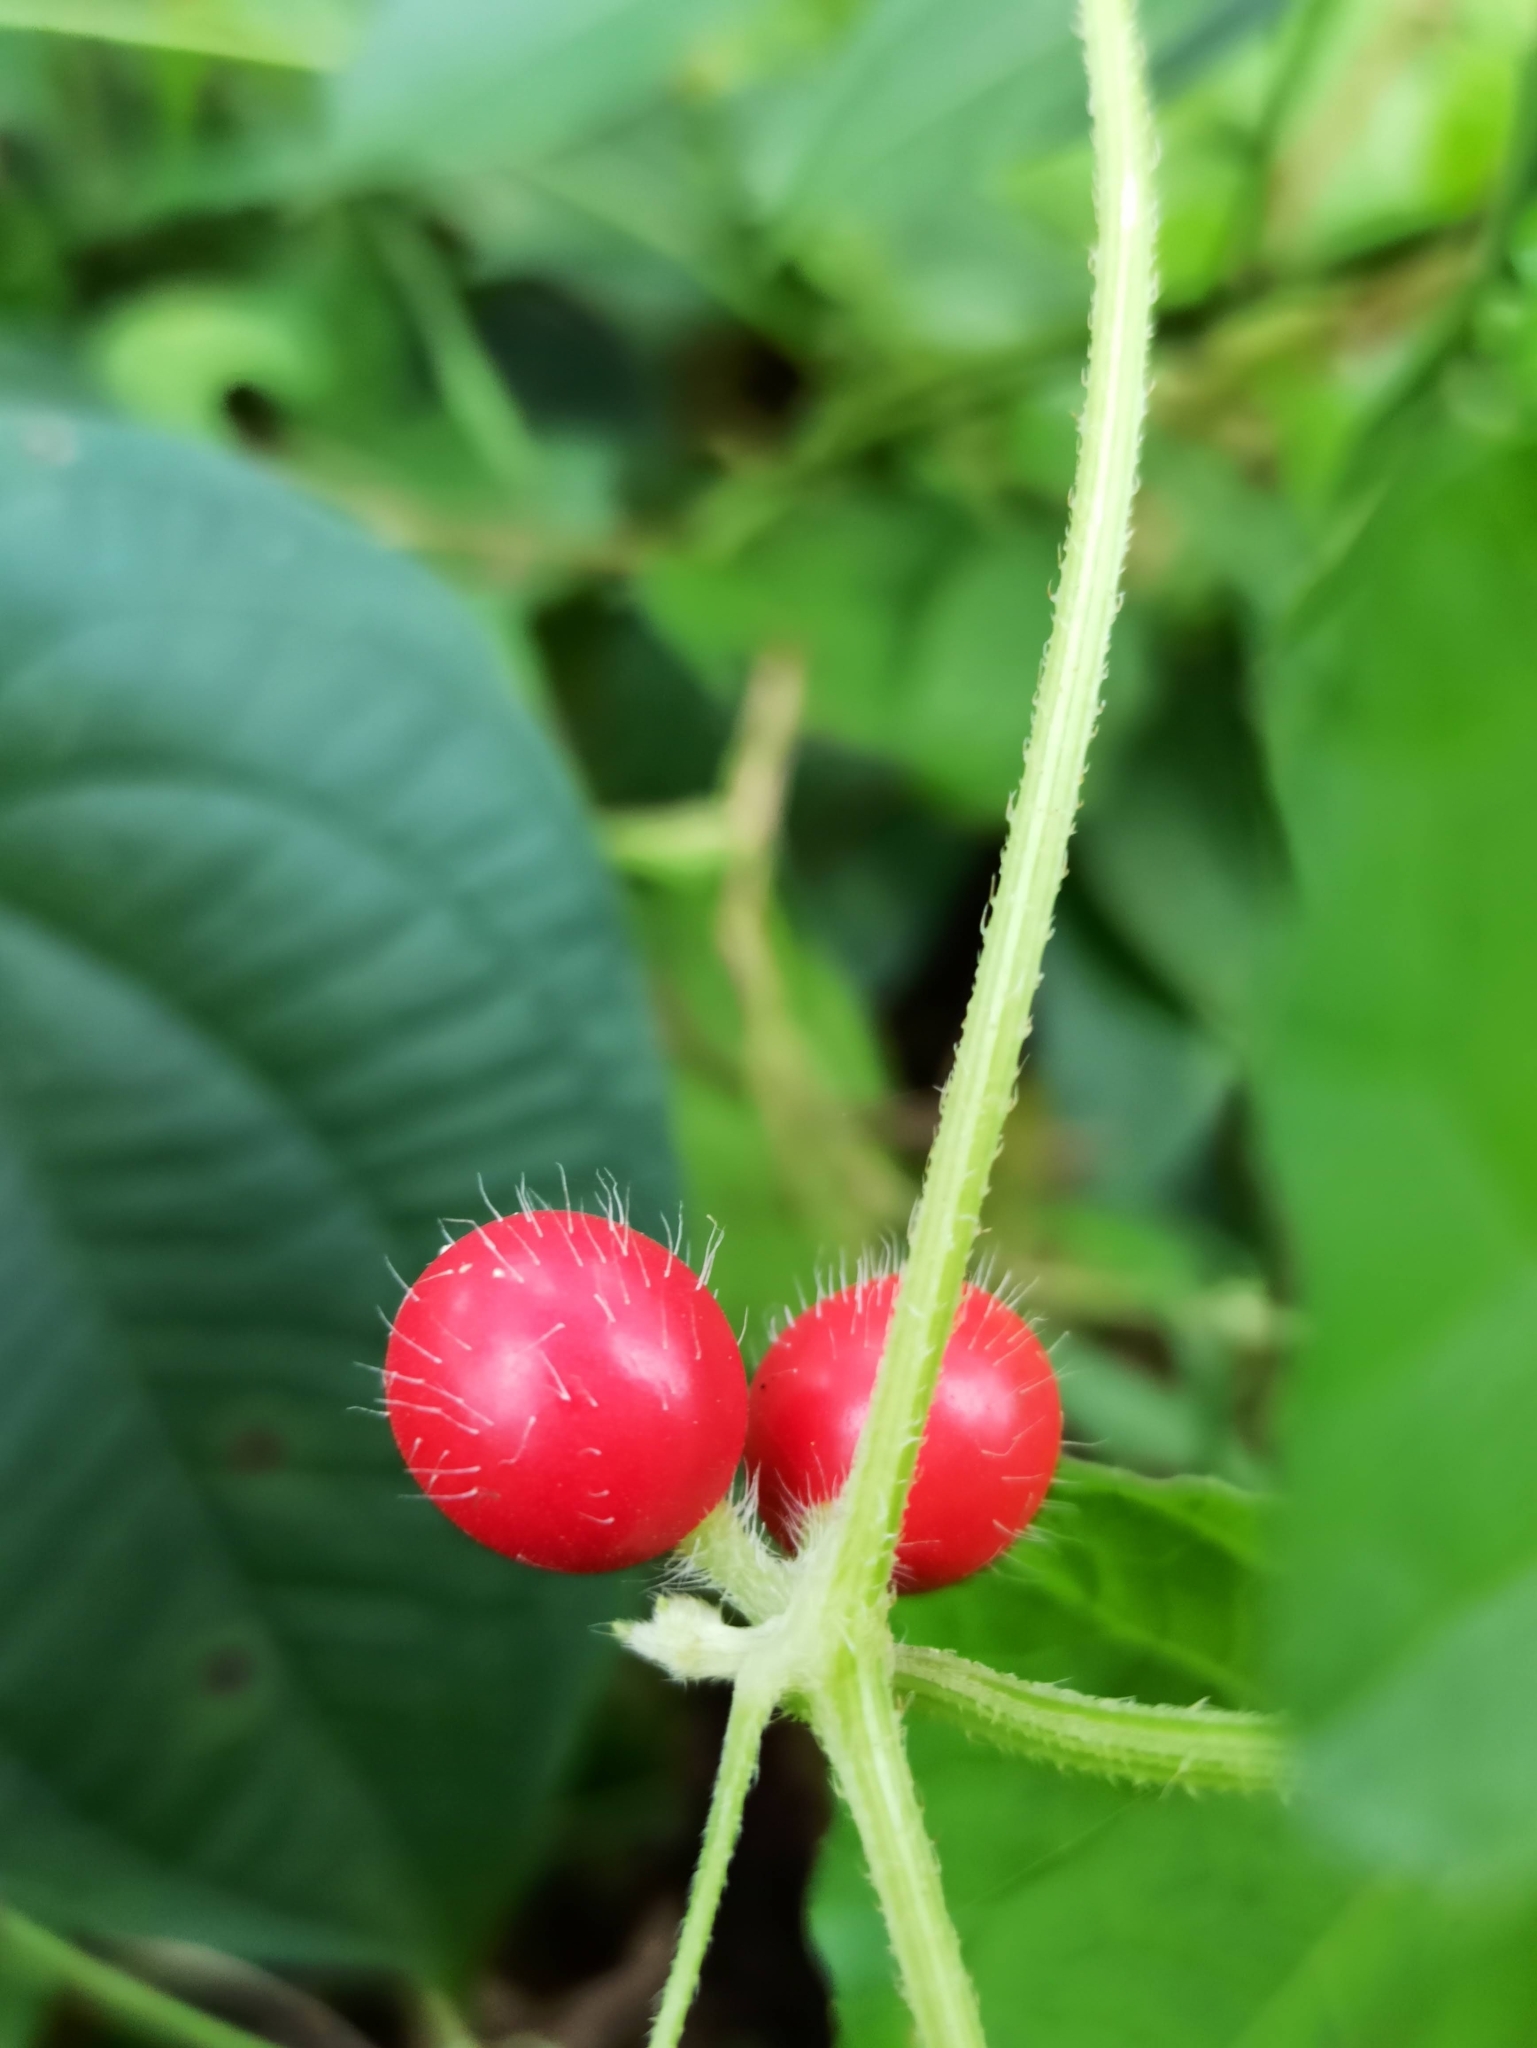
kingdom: Plantae
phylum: Tracheophyta
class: Magnoliopsida
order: Cucurbitales
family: Cucurbitaceae
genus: Cucumis
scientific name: Cucumis maderaspatanus
